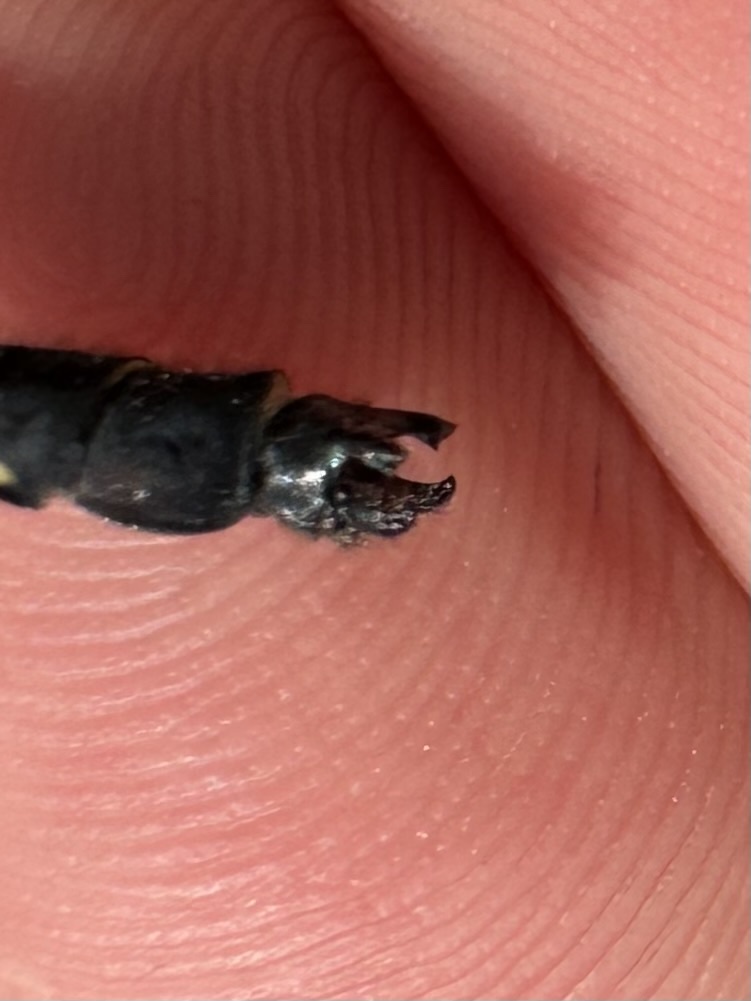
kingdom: Animalia
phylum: Arthropoda
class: Insecta
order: Odonata
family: Gomphidae
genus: Hylogomphus
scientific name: Hylogomphus adelphus
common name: Mustached clubtail
